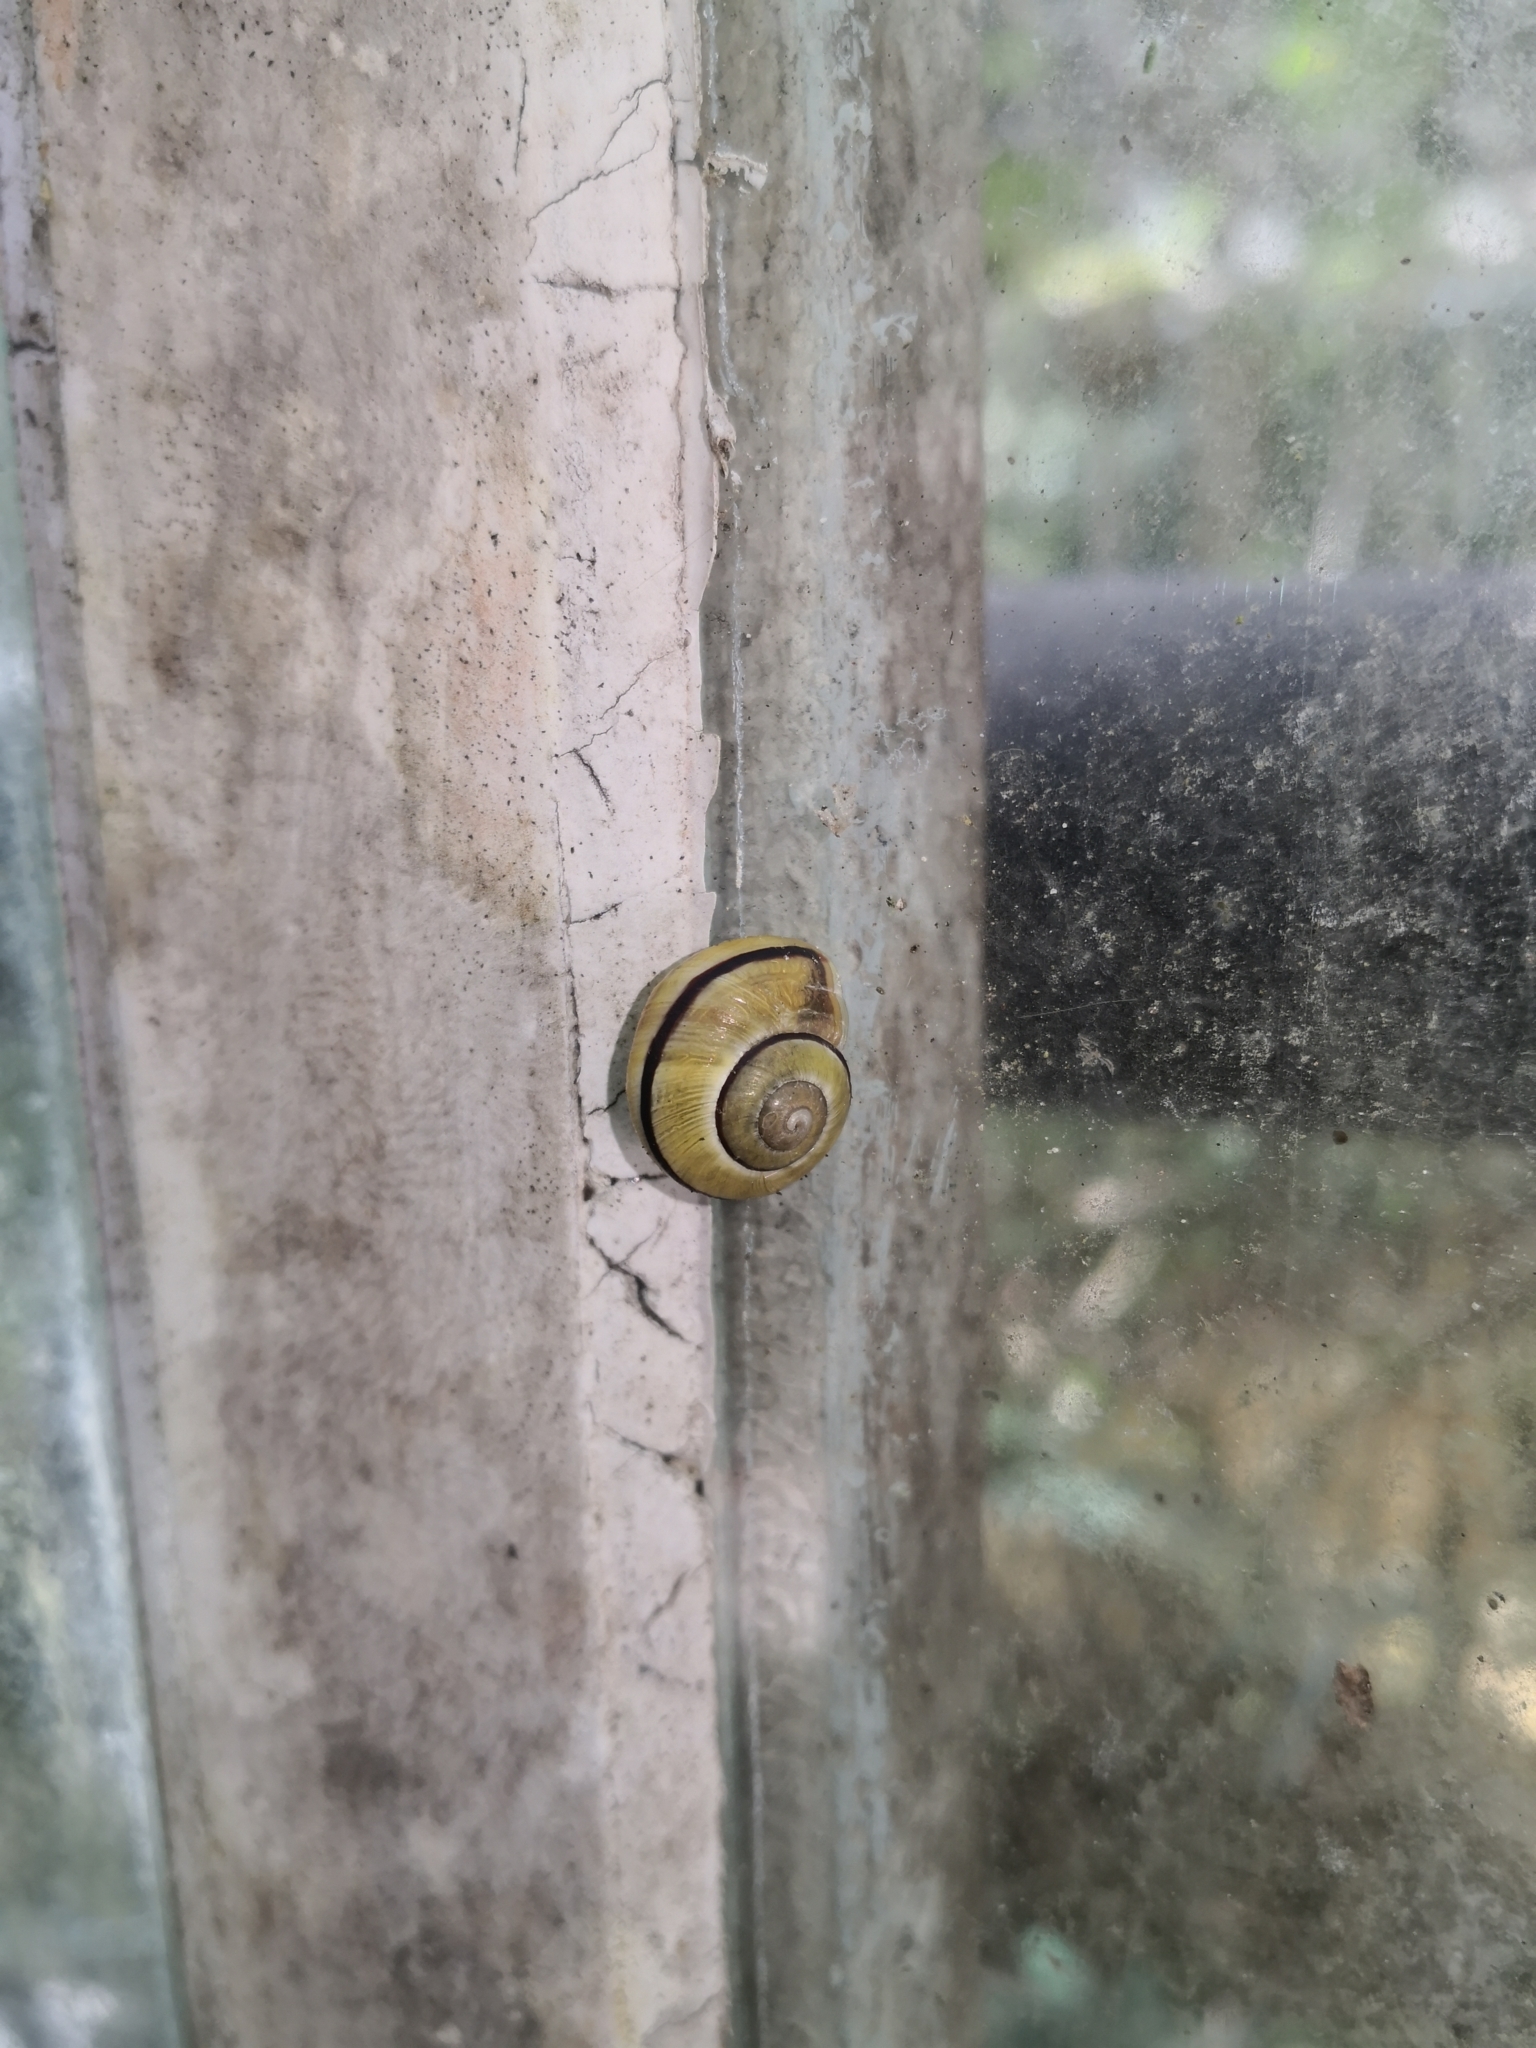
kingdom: Animalia
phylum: Mollusca
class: Gastropoda
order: Stylommatophora
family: Helicidae
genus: Cepaea
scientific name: Cepaea nemoralis
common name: Grovesnail
